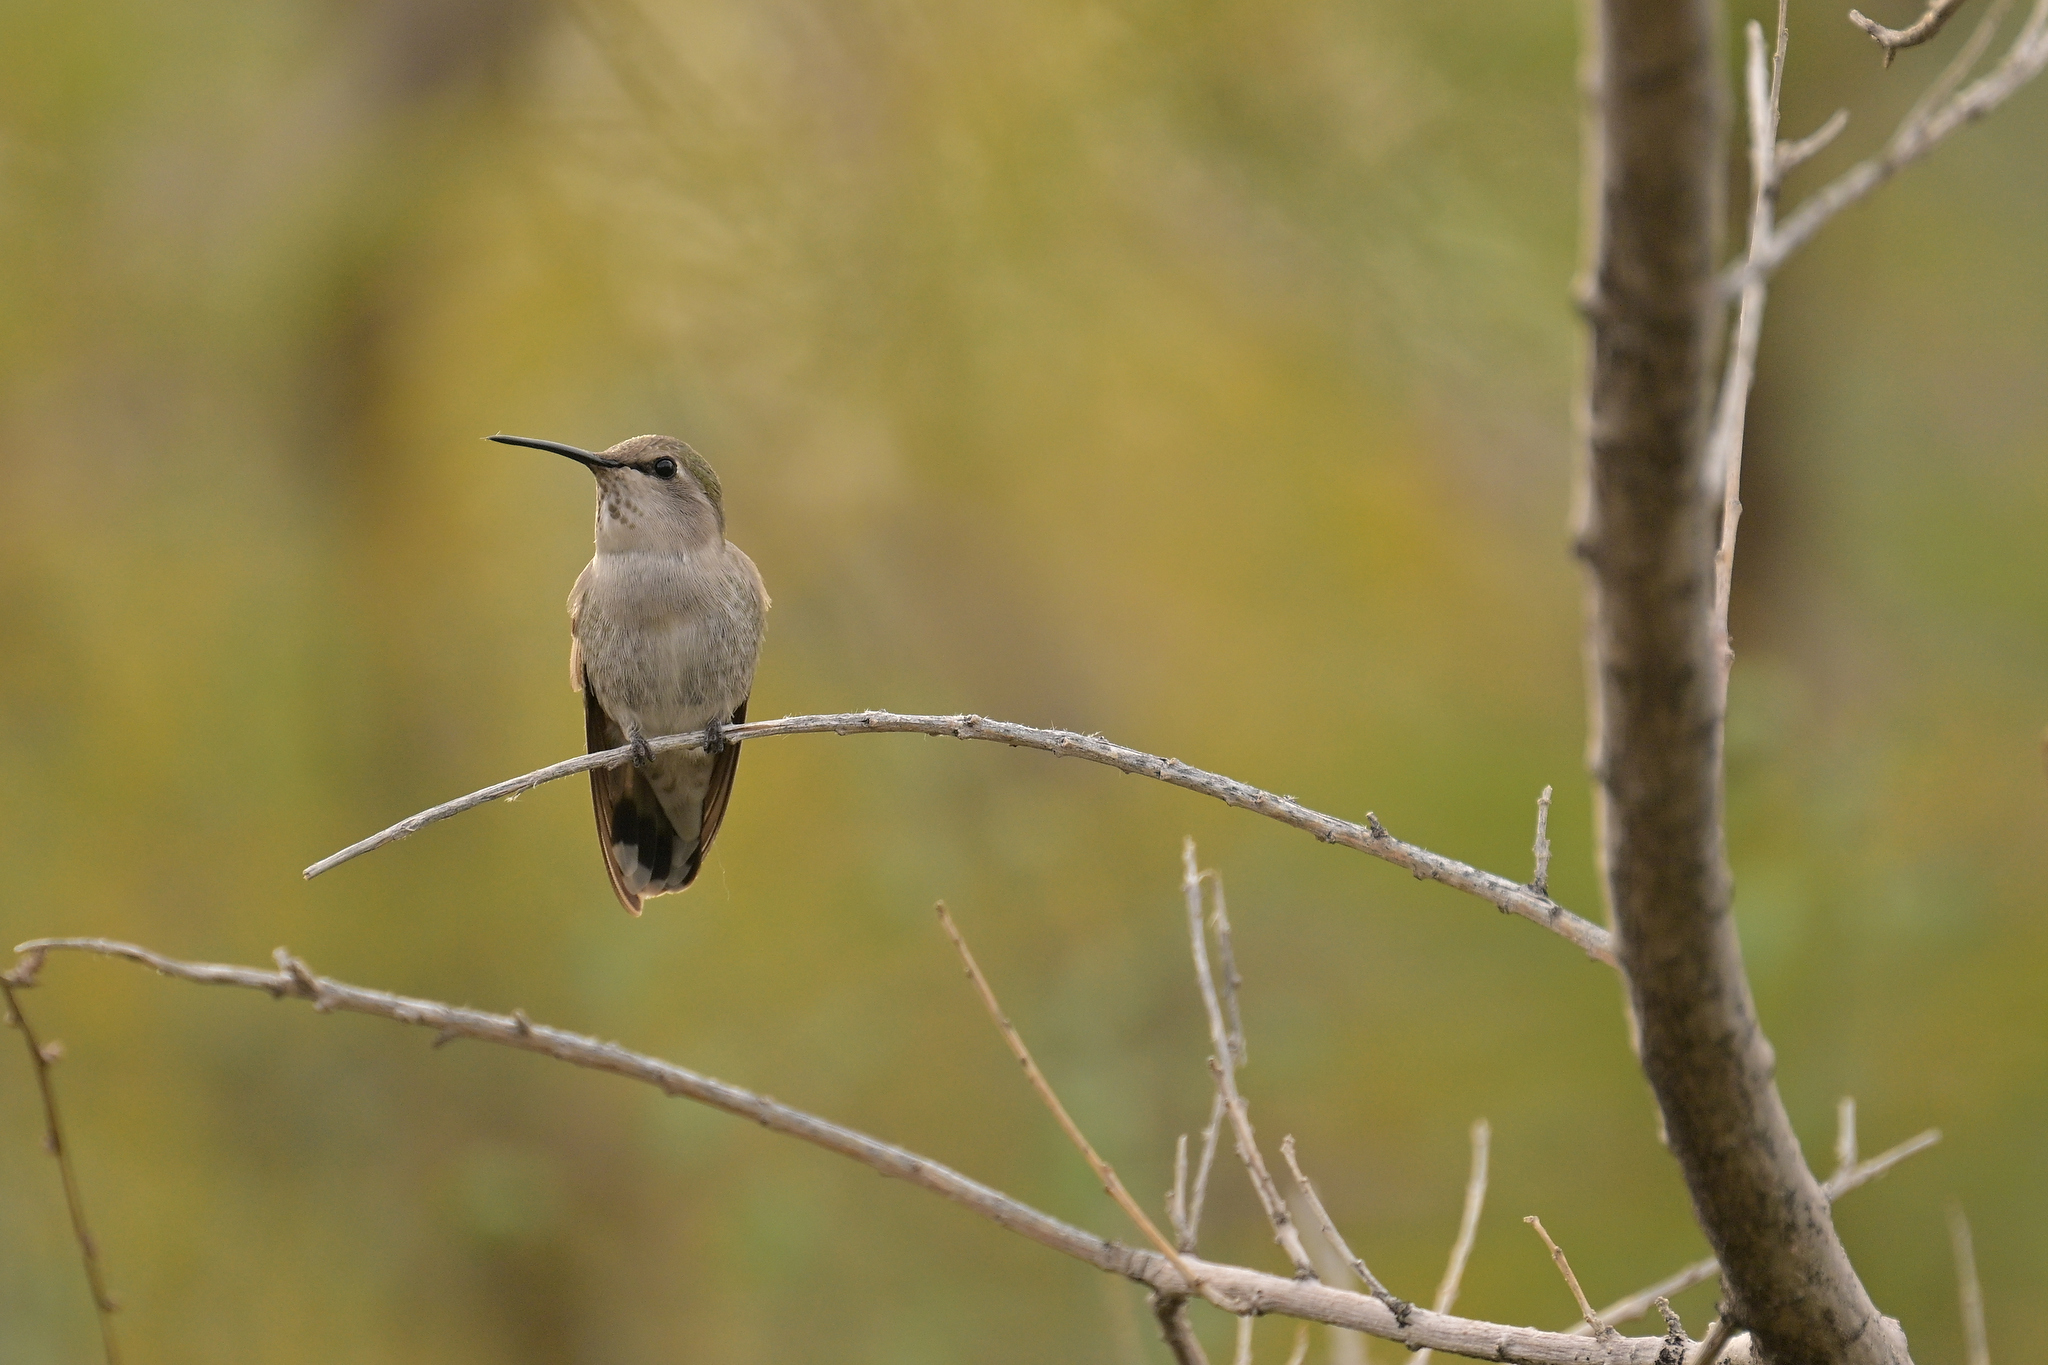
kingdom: Animalia
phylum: Chordata
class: Aves
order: Apodiformes
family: Trochilidae
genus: Calypte
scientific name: Calypte costae
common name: Costa's hummingbird
